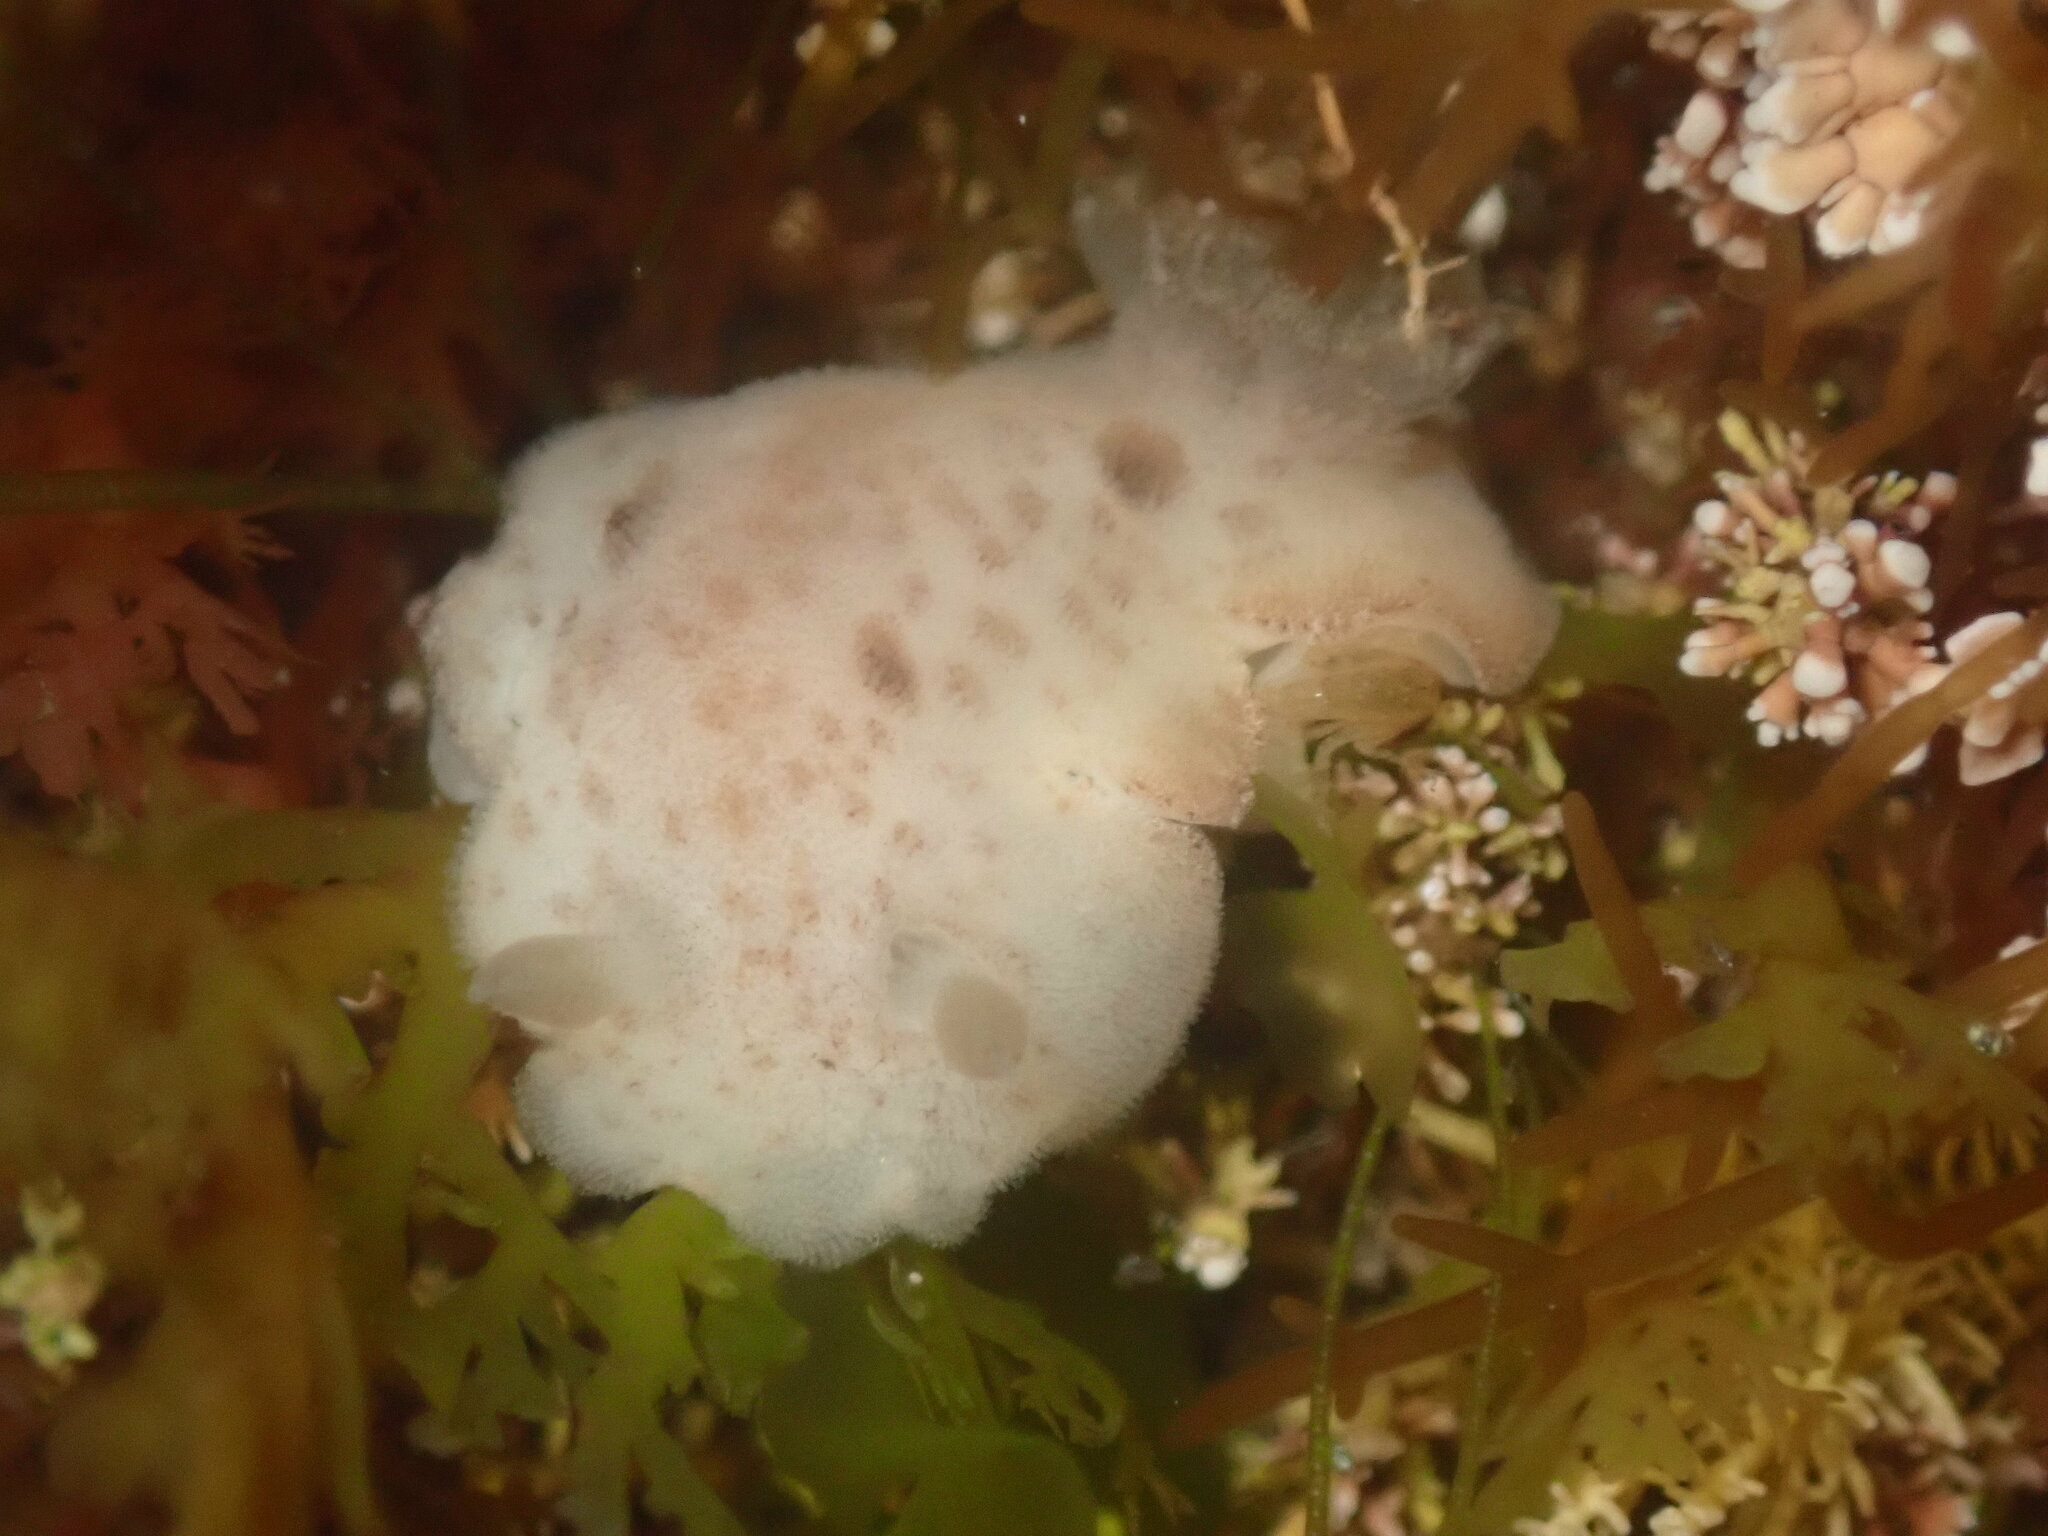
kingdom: Animalia
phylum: Mollusca
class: Gastropoda
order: Nudibranchia
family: Discodorididae
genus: Diaulula
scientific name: Diaulula sandiegensis
